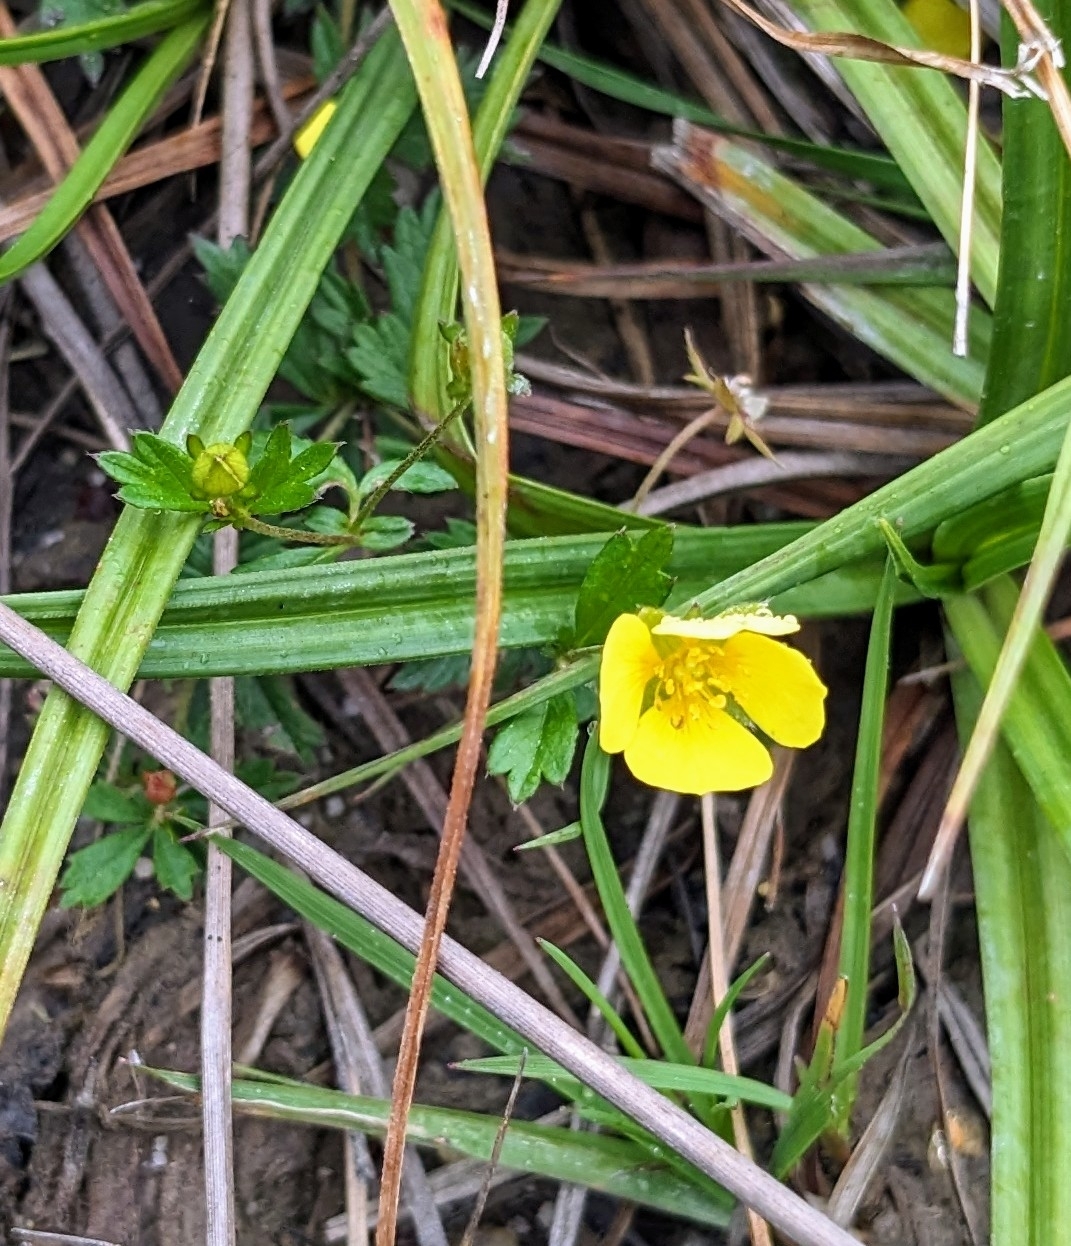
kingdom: Plantae
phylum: Tracheophyta
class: Magnoliopsida
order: Rosales
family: Rosaceae
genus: Potentilla
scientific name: Potentilla erecta
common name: Tormentil
